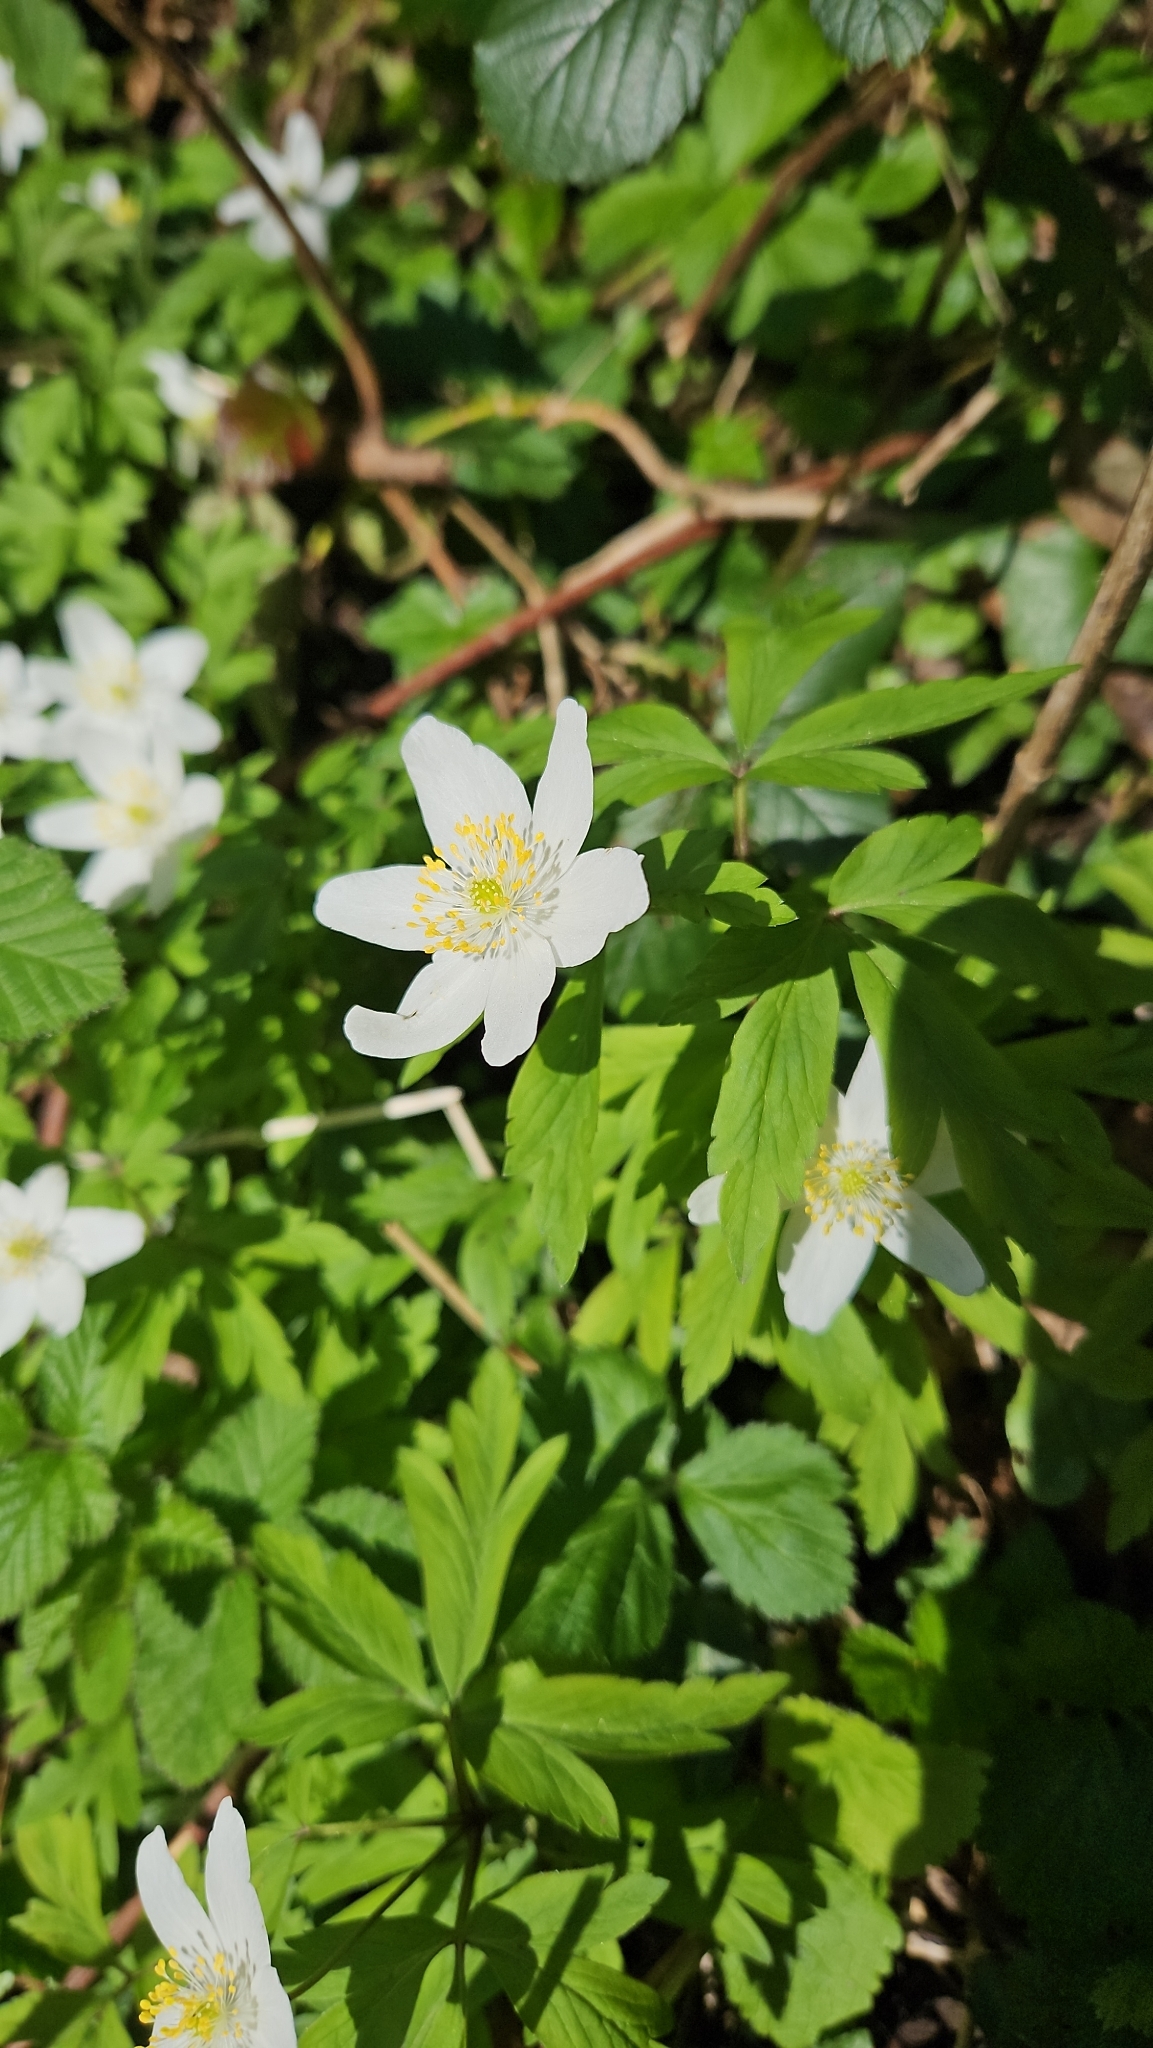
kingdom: Plantae
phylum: Tracheophyta
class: Magnoliopsida
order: Ranunculales
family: Ranunculaceae
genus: Anemone
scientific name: Anemone nemorosa
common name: Wood anemone
